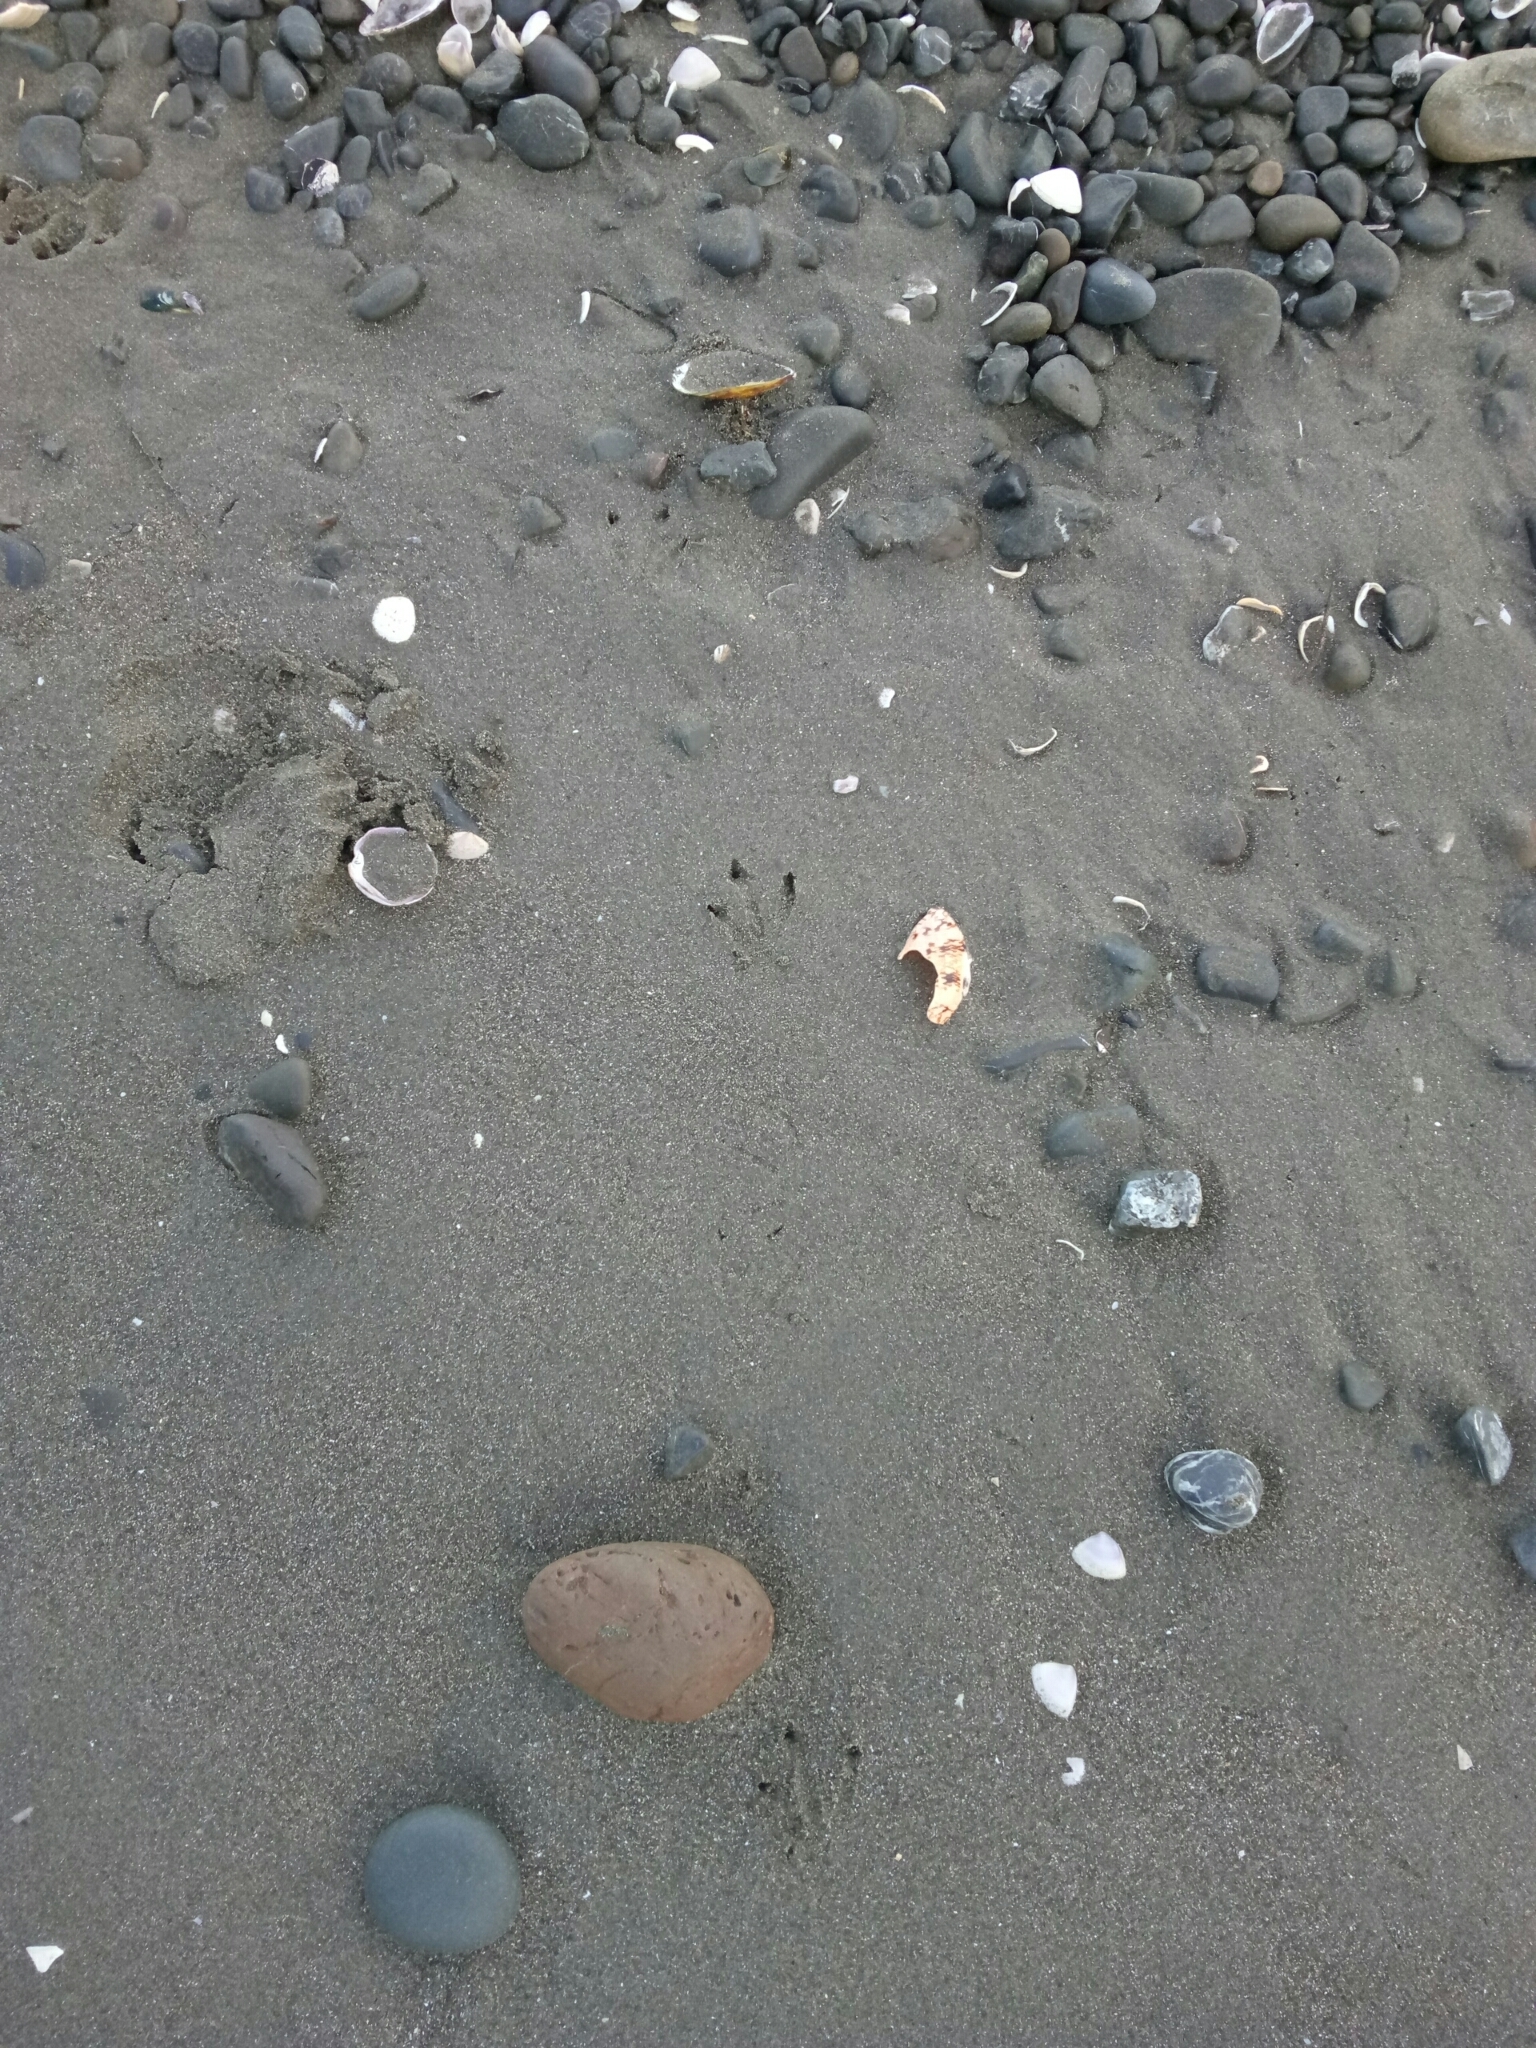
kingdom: Animalia
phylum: Chordata
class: Aves
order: Sphenisciformes
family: Spheniscidae
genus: Eudyptula
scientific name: Eudyptula minor
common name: Little penguin
